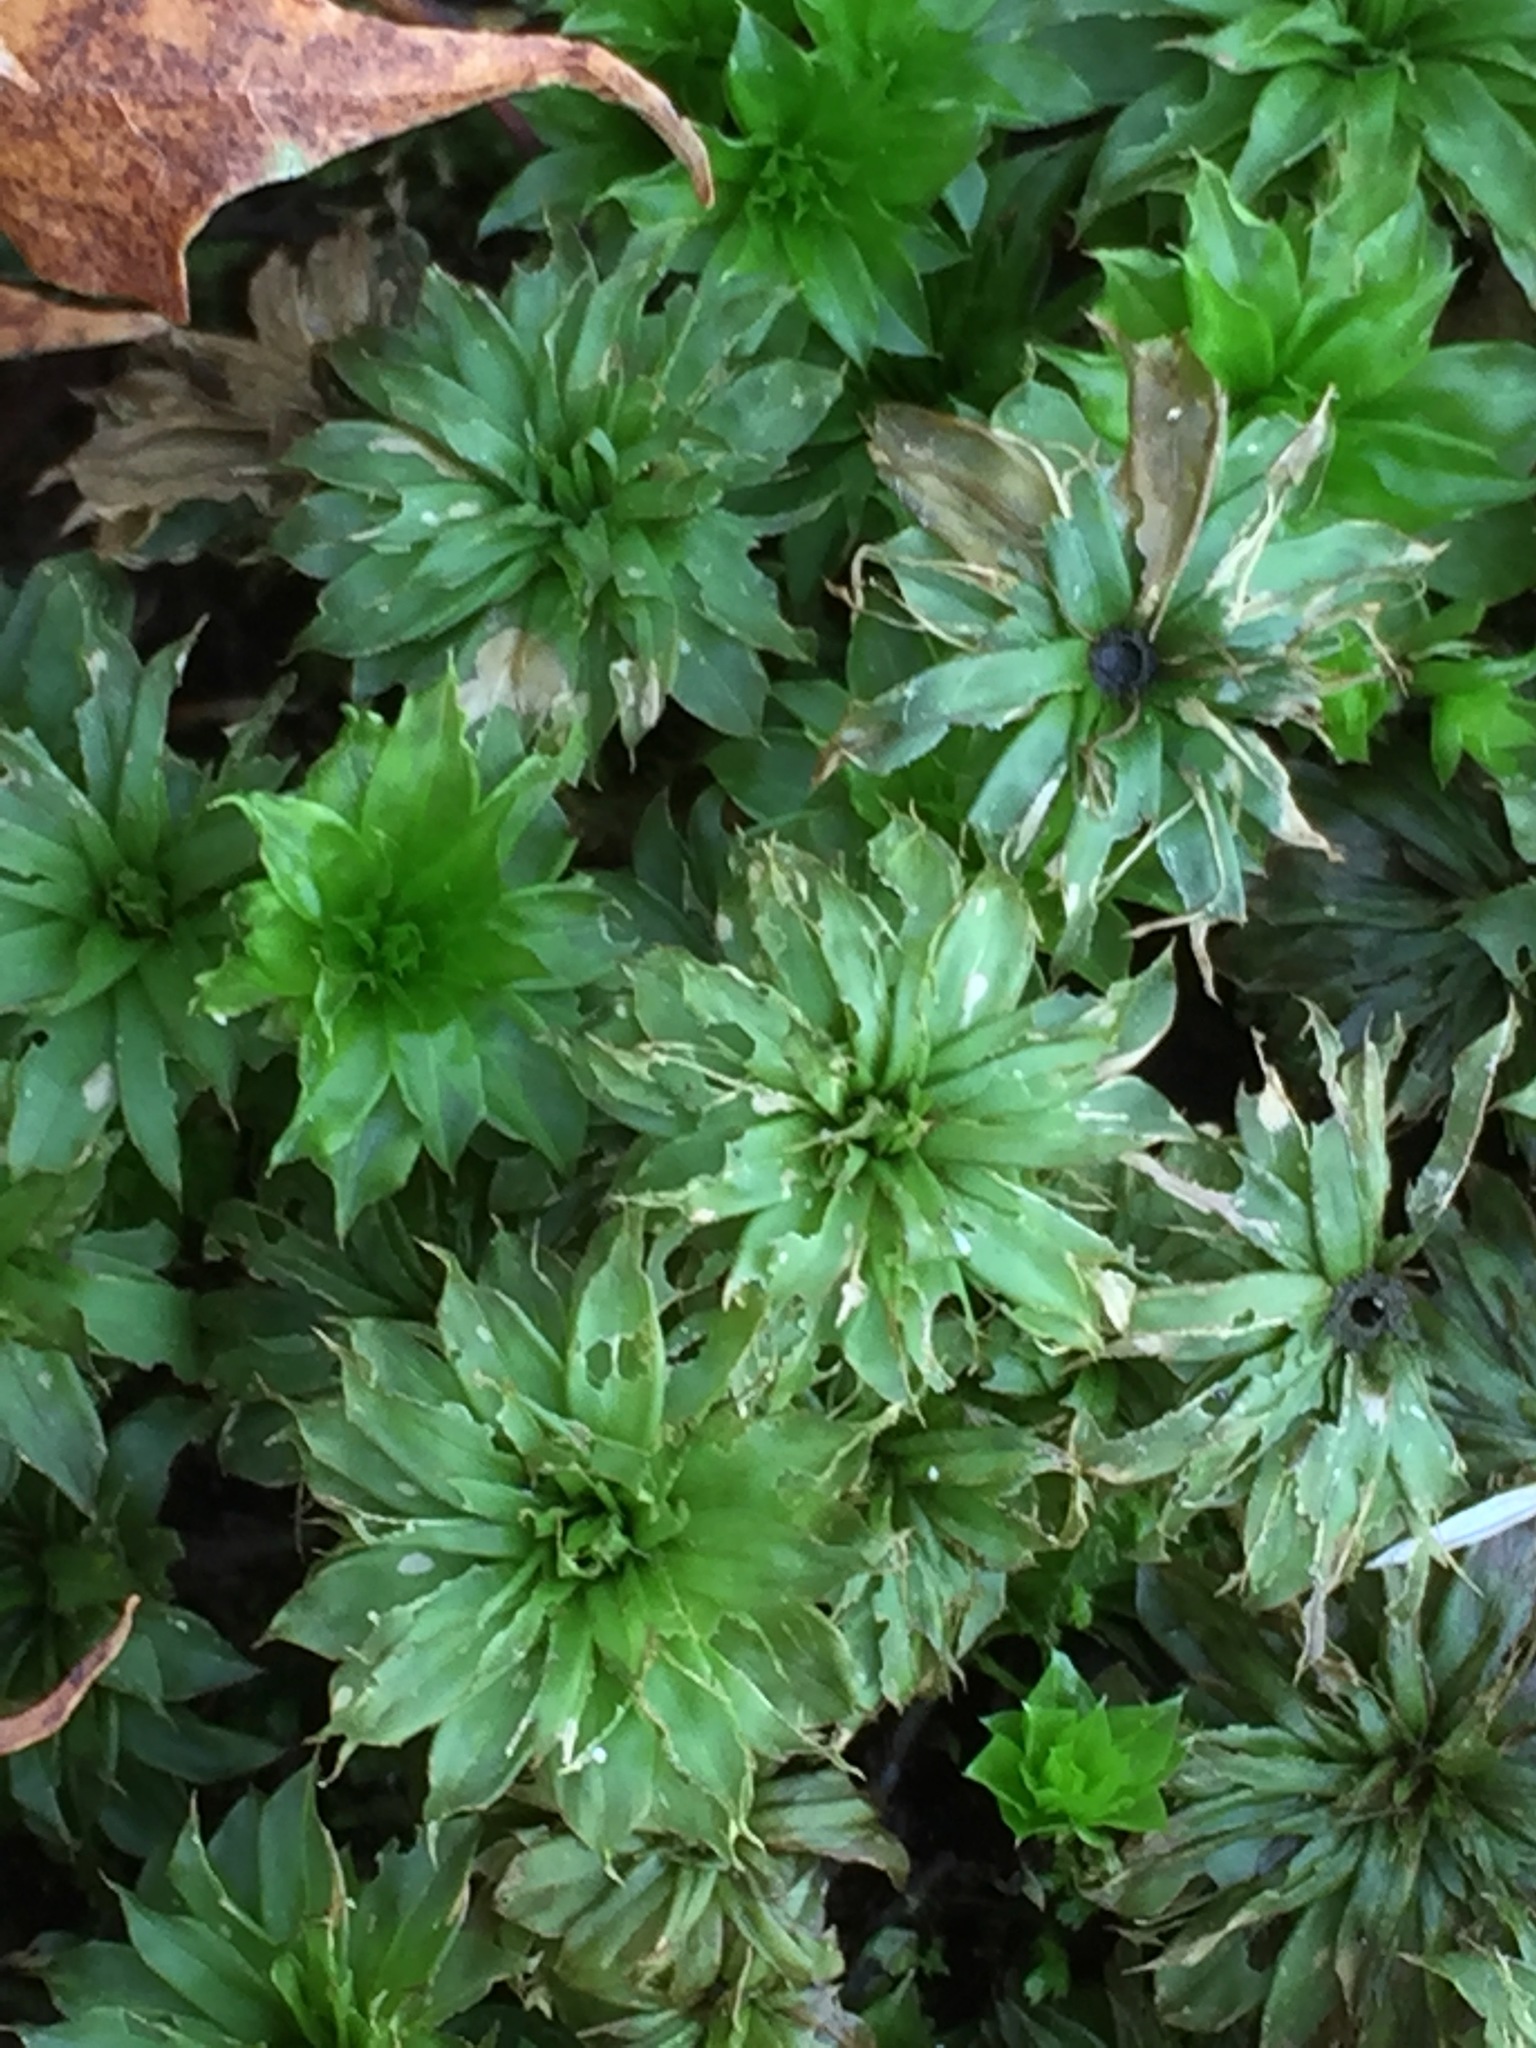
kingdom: Plantae
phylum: Bryophyta
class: Bryopsida
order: Bryales
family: Bryaceae
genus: Rhodobryum
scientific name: Rhodobryum ontariense
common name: Ontario rhodobryum moss
